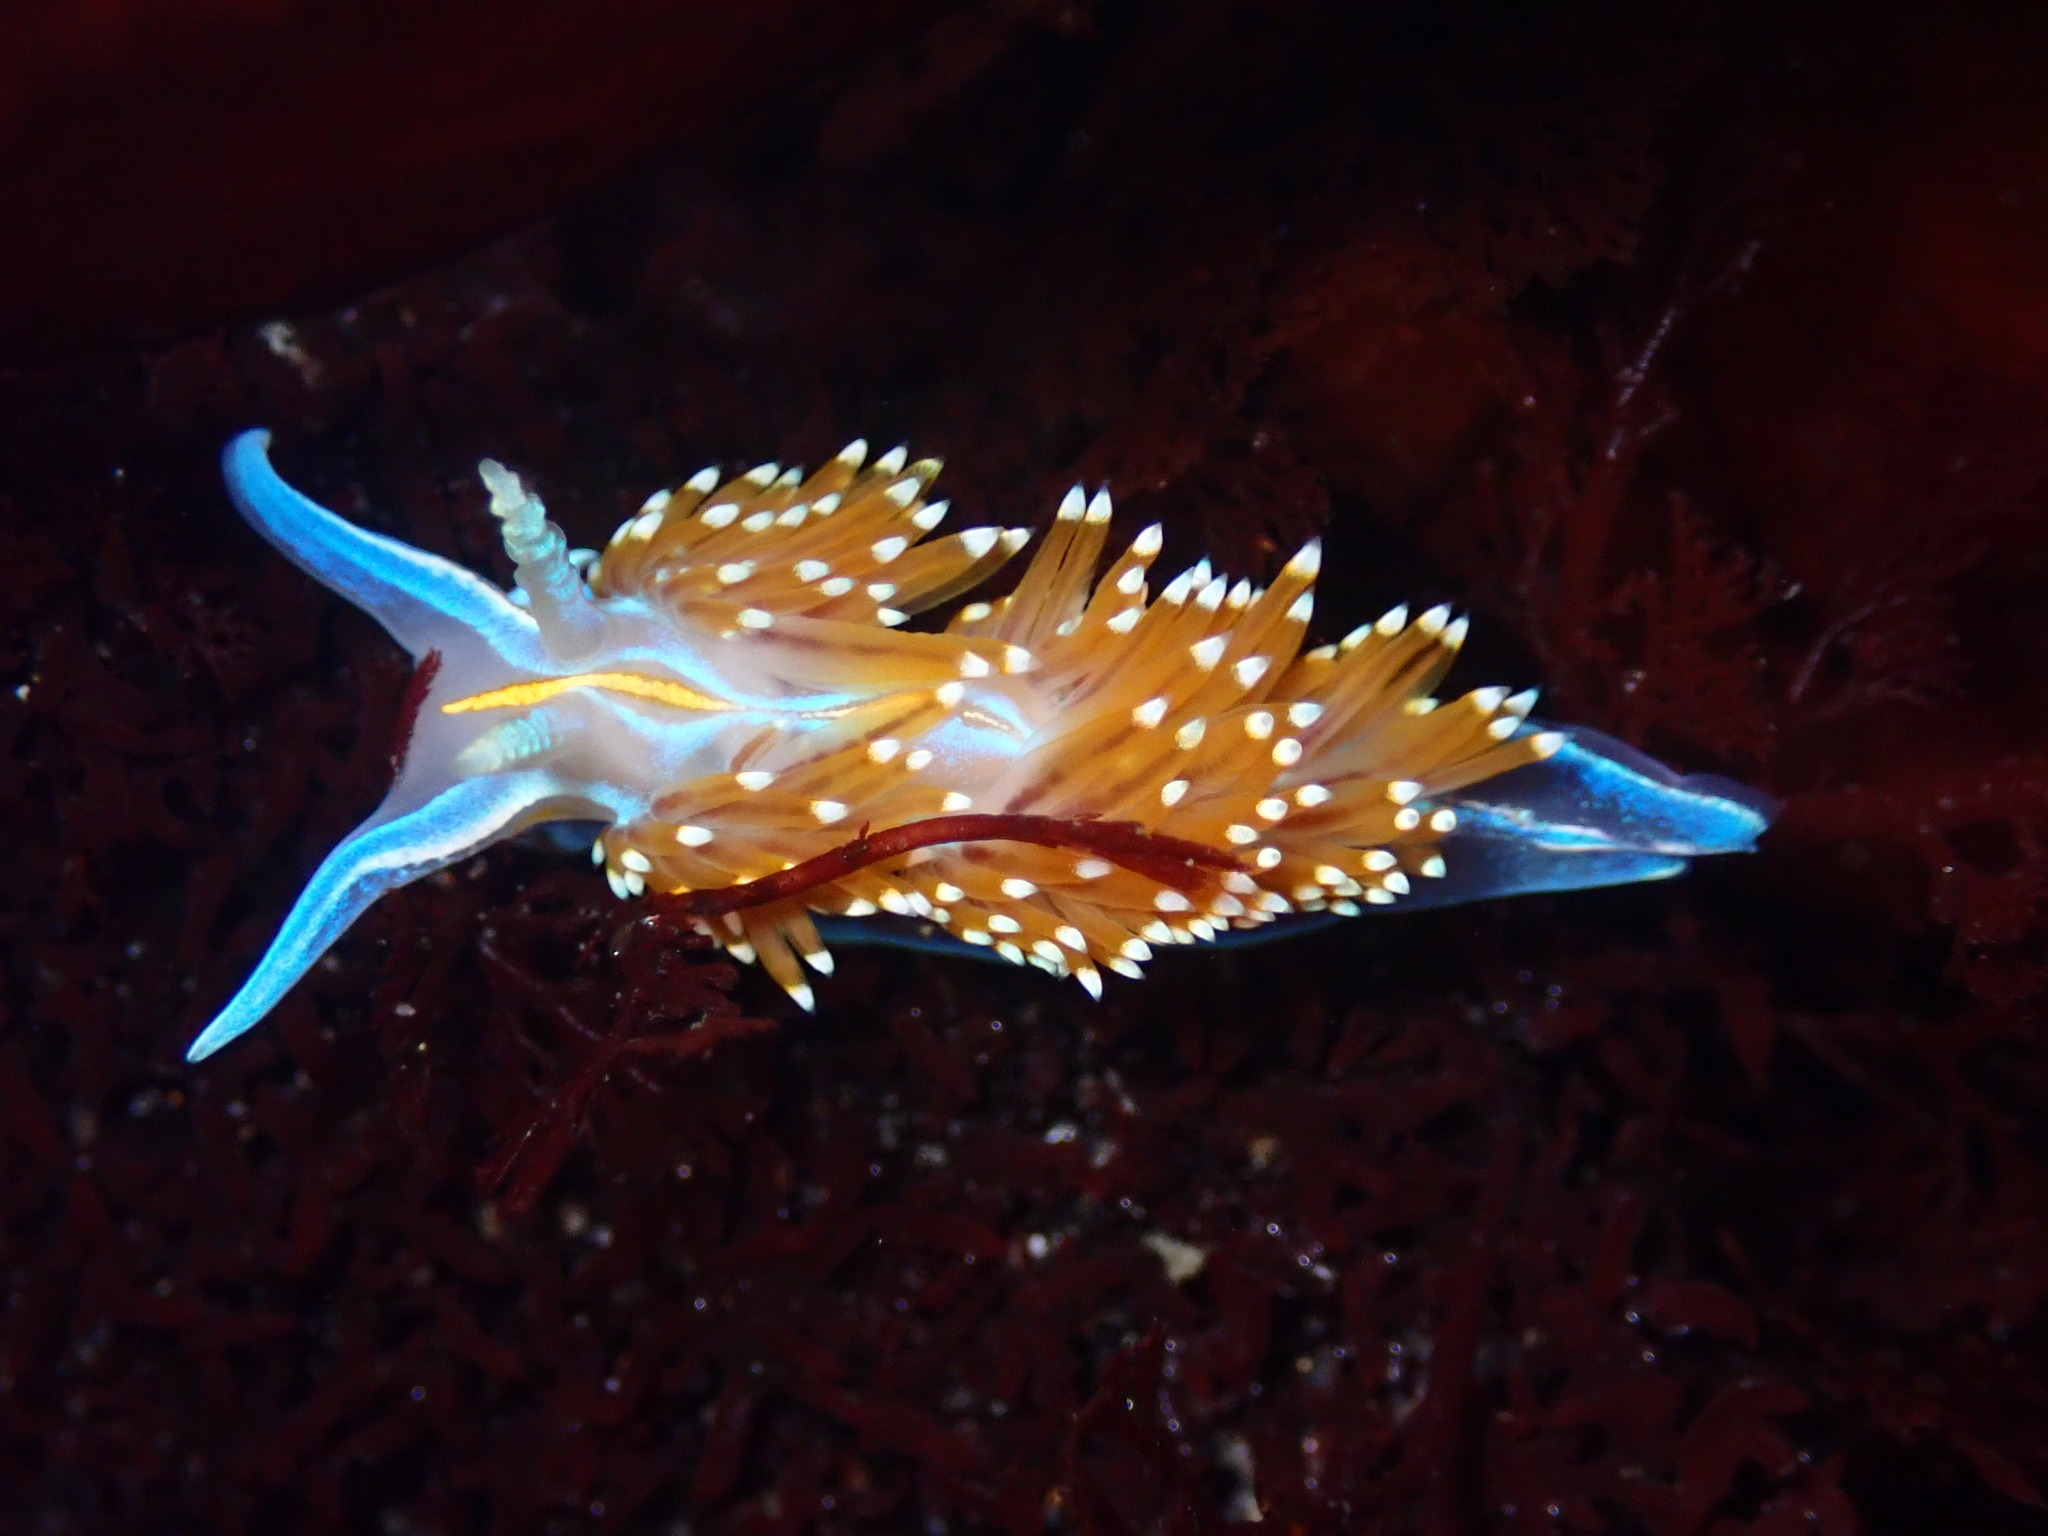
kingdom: Animalia
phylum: Mollusca
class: Gastropoda
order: Nudibranchia
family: Myrrhinidae
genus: Hermissenda
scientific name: Hermissenda opalescens
